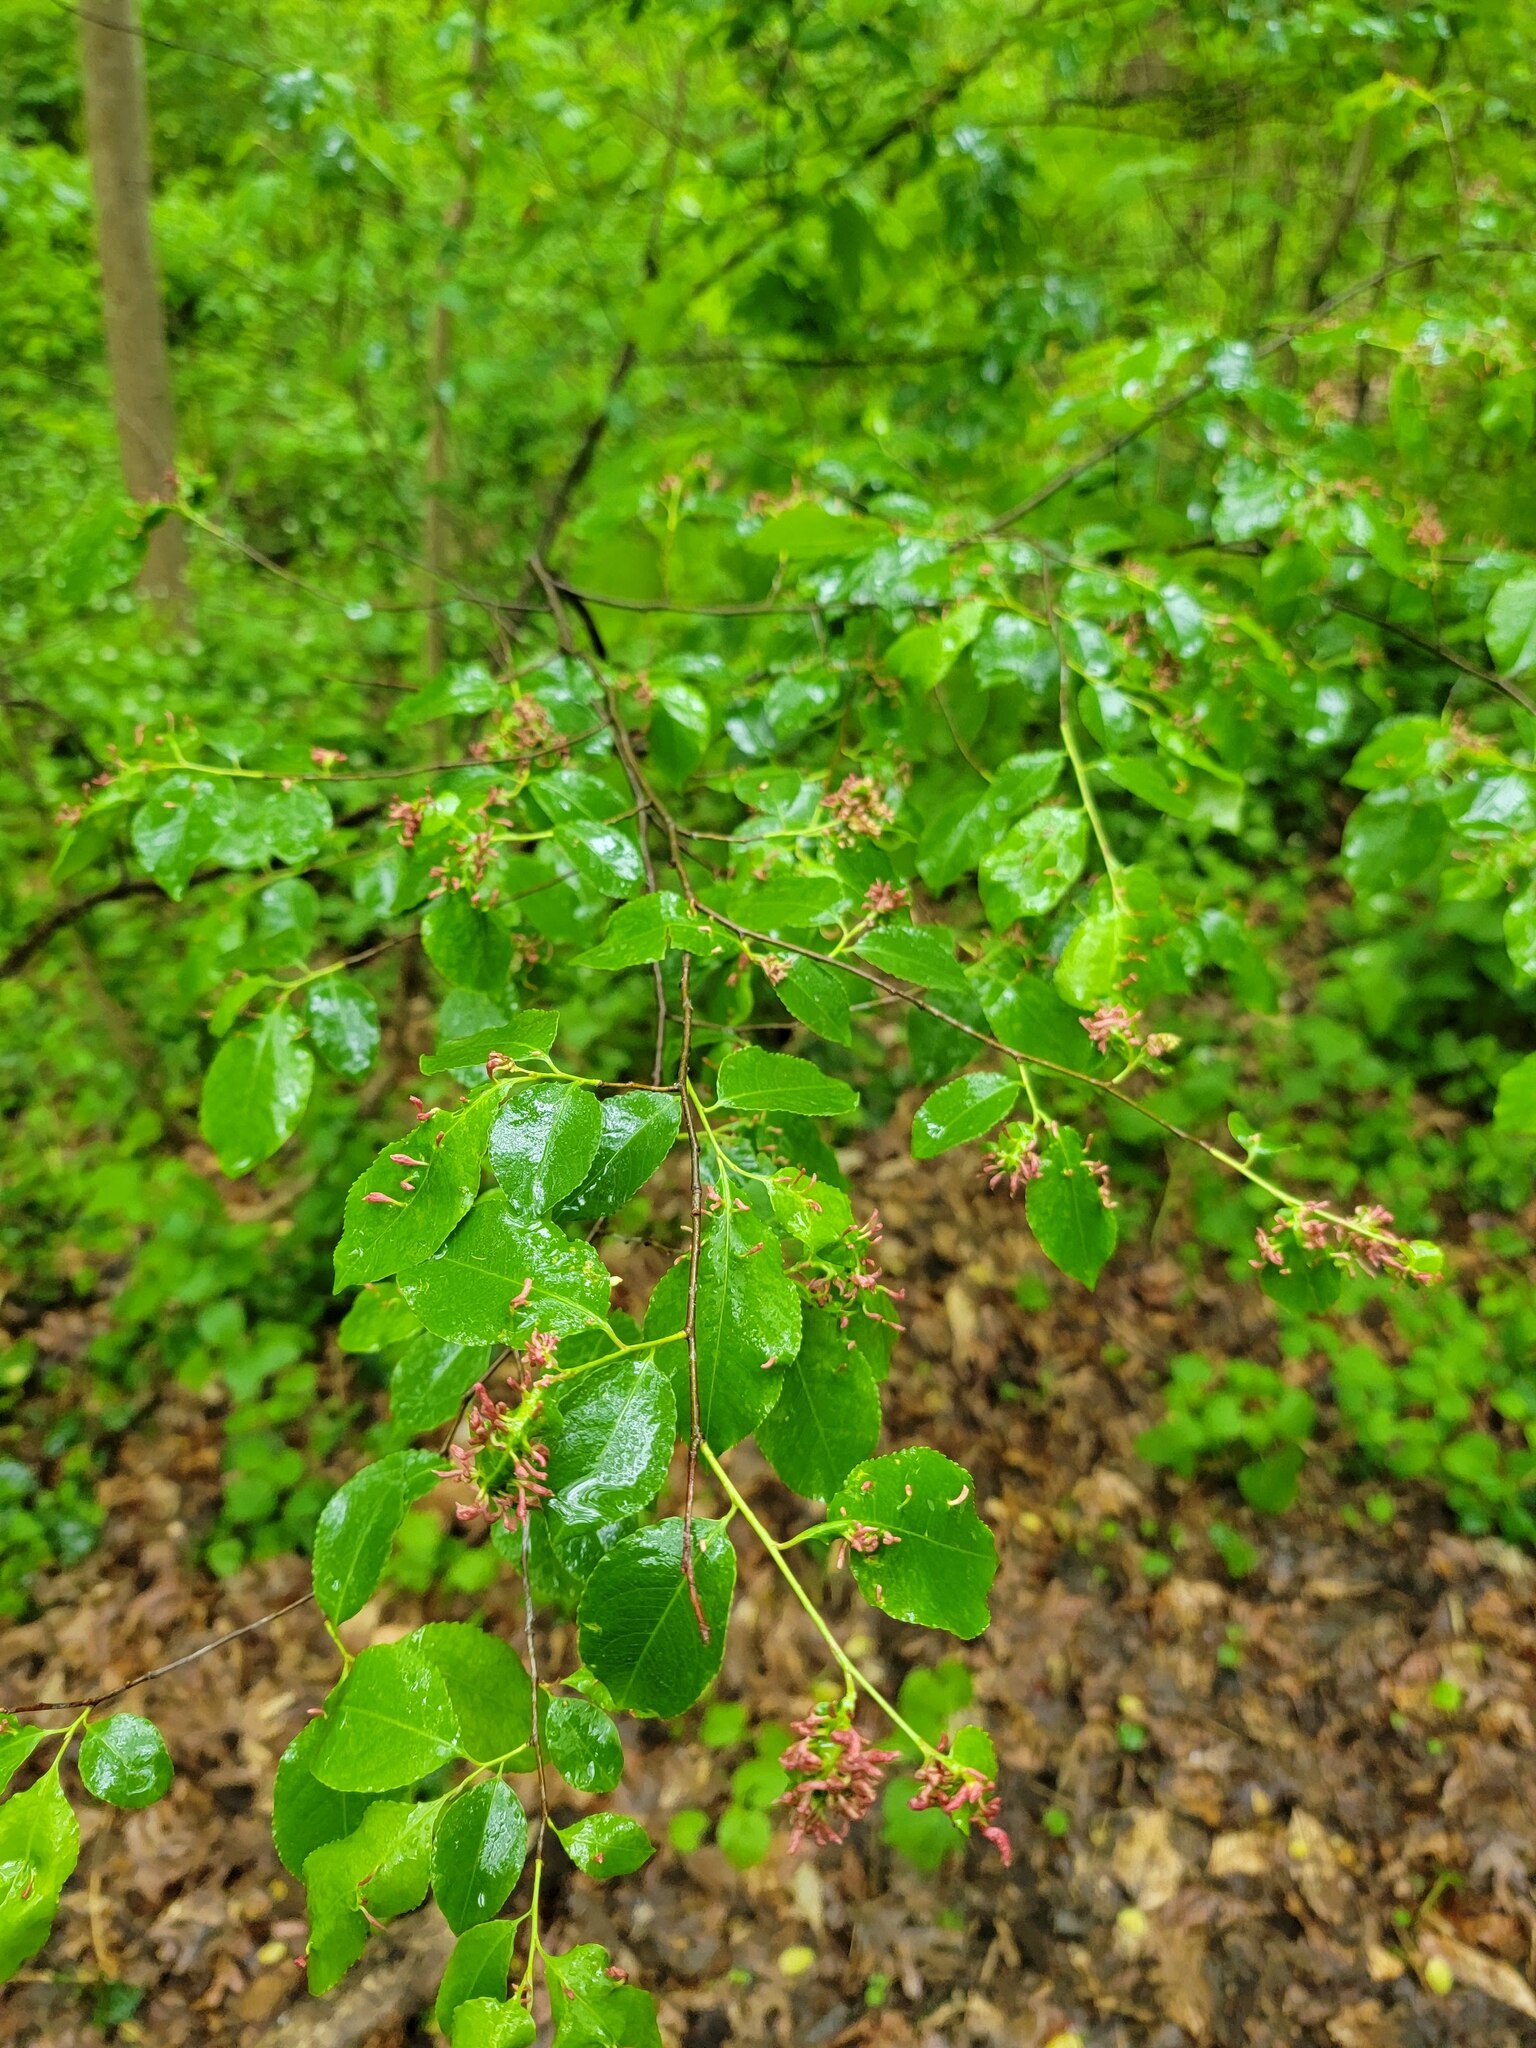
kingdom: Plantae
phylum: Tracheophyta
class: Magnoliopsida
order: Rosales
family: Rosaceae
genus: Prunus
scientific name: Prunus serotina
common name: Black cherry
